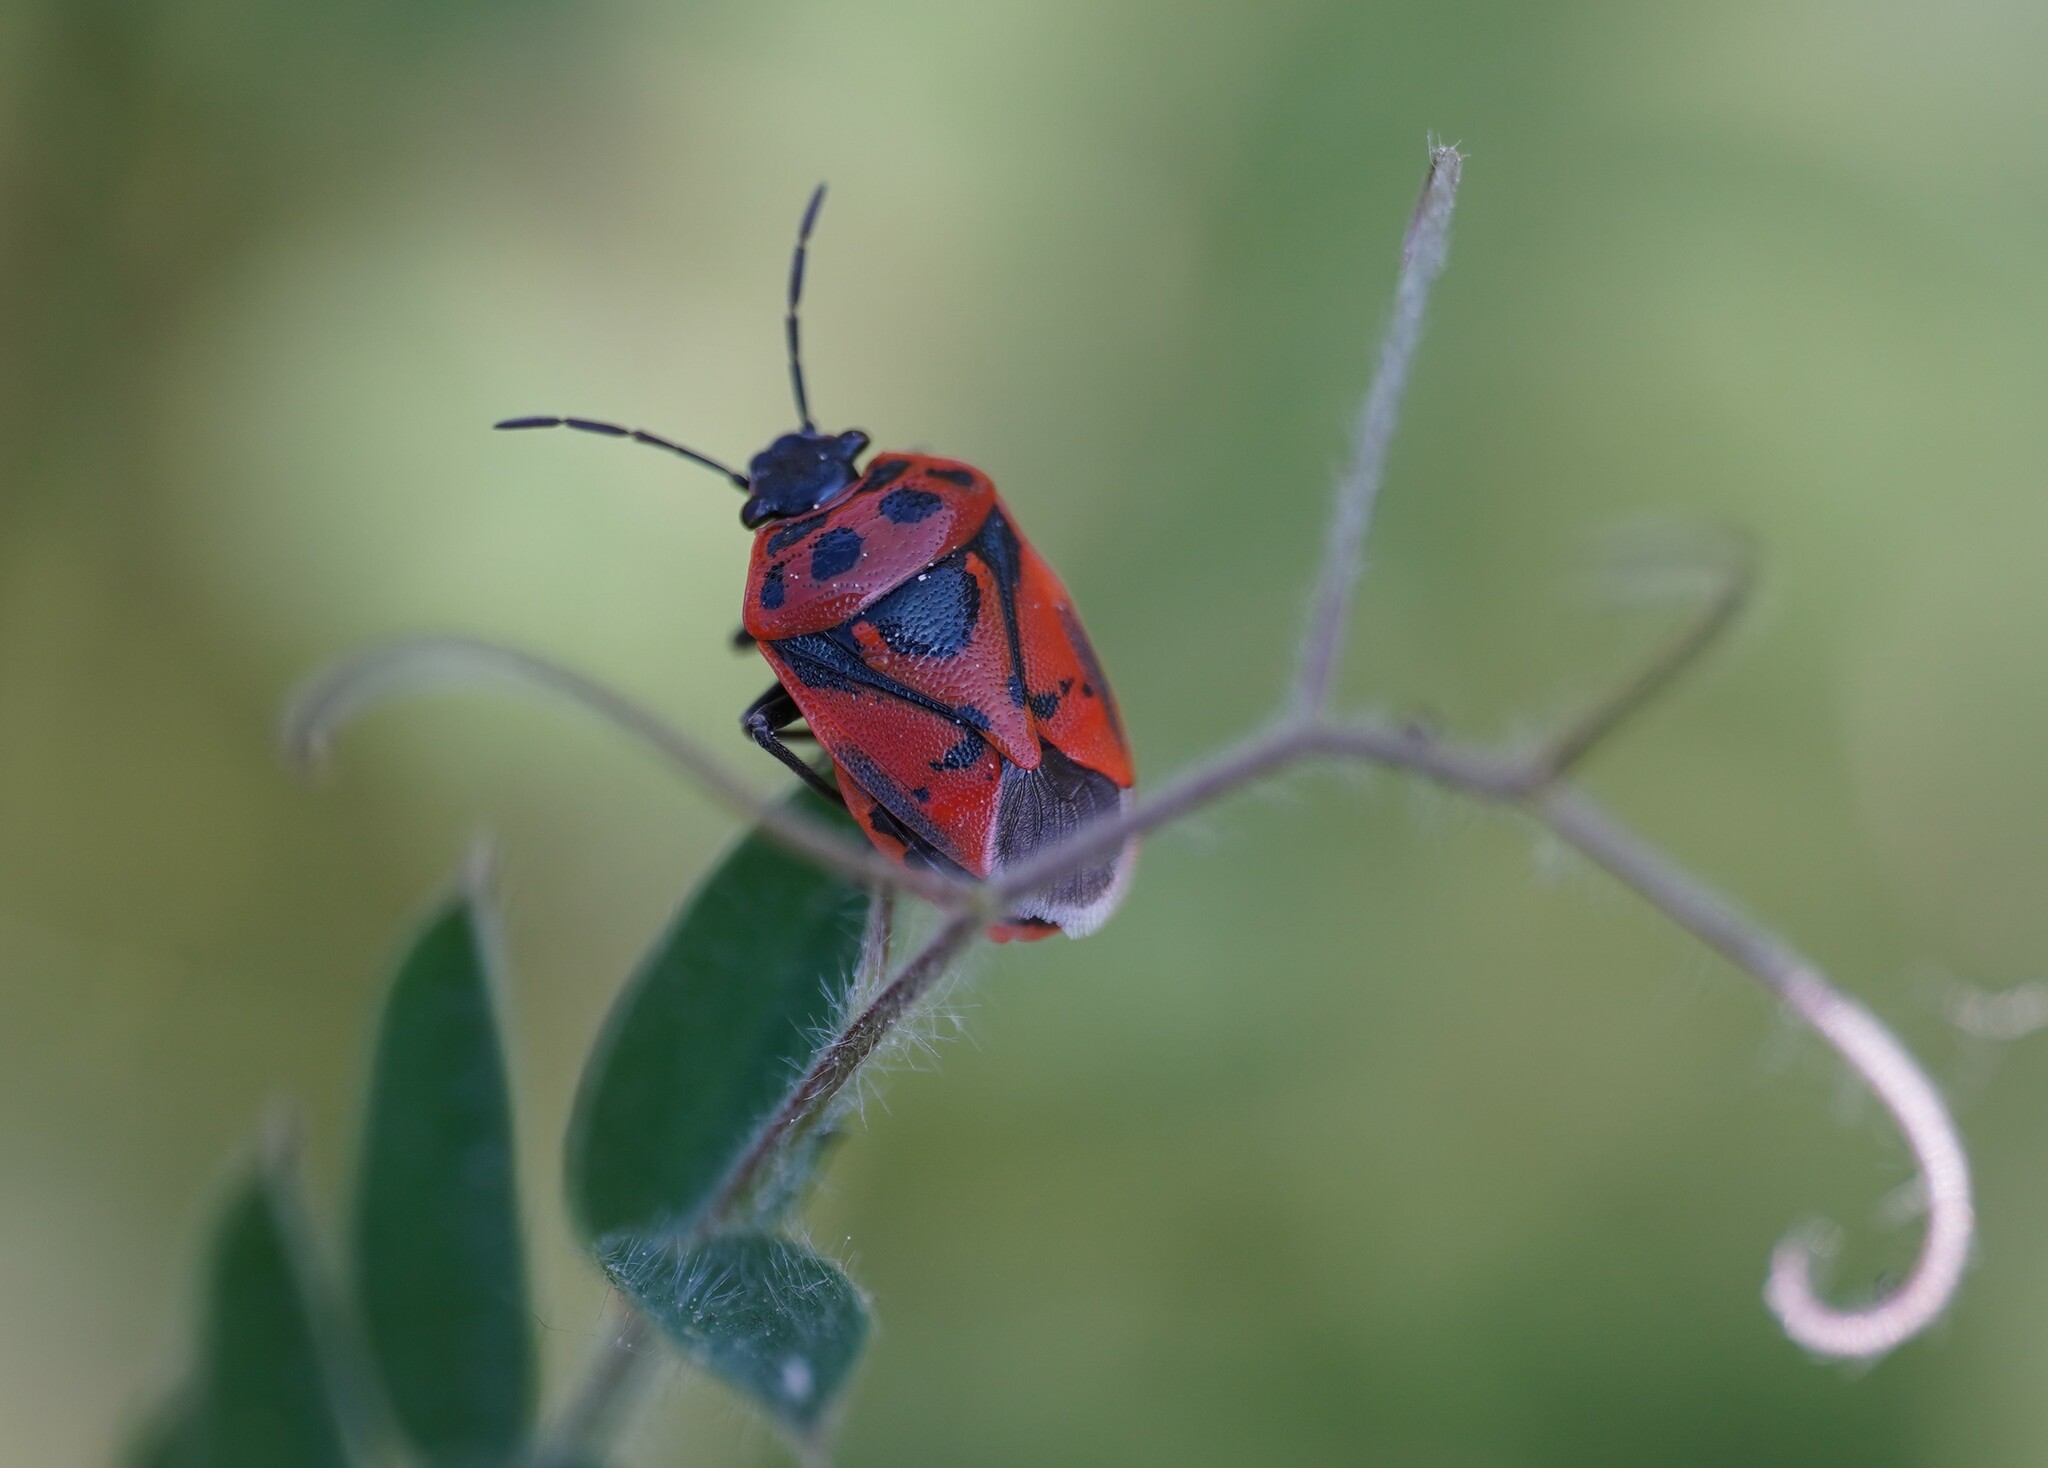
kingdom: Animalia
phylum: Arthropoda
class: Insecta
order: Hemiptera
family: Pentatomidae
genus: Eurydema
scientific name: Eurydema ornata
